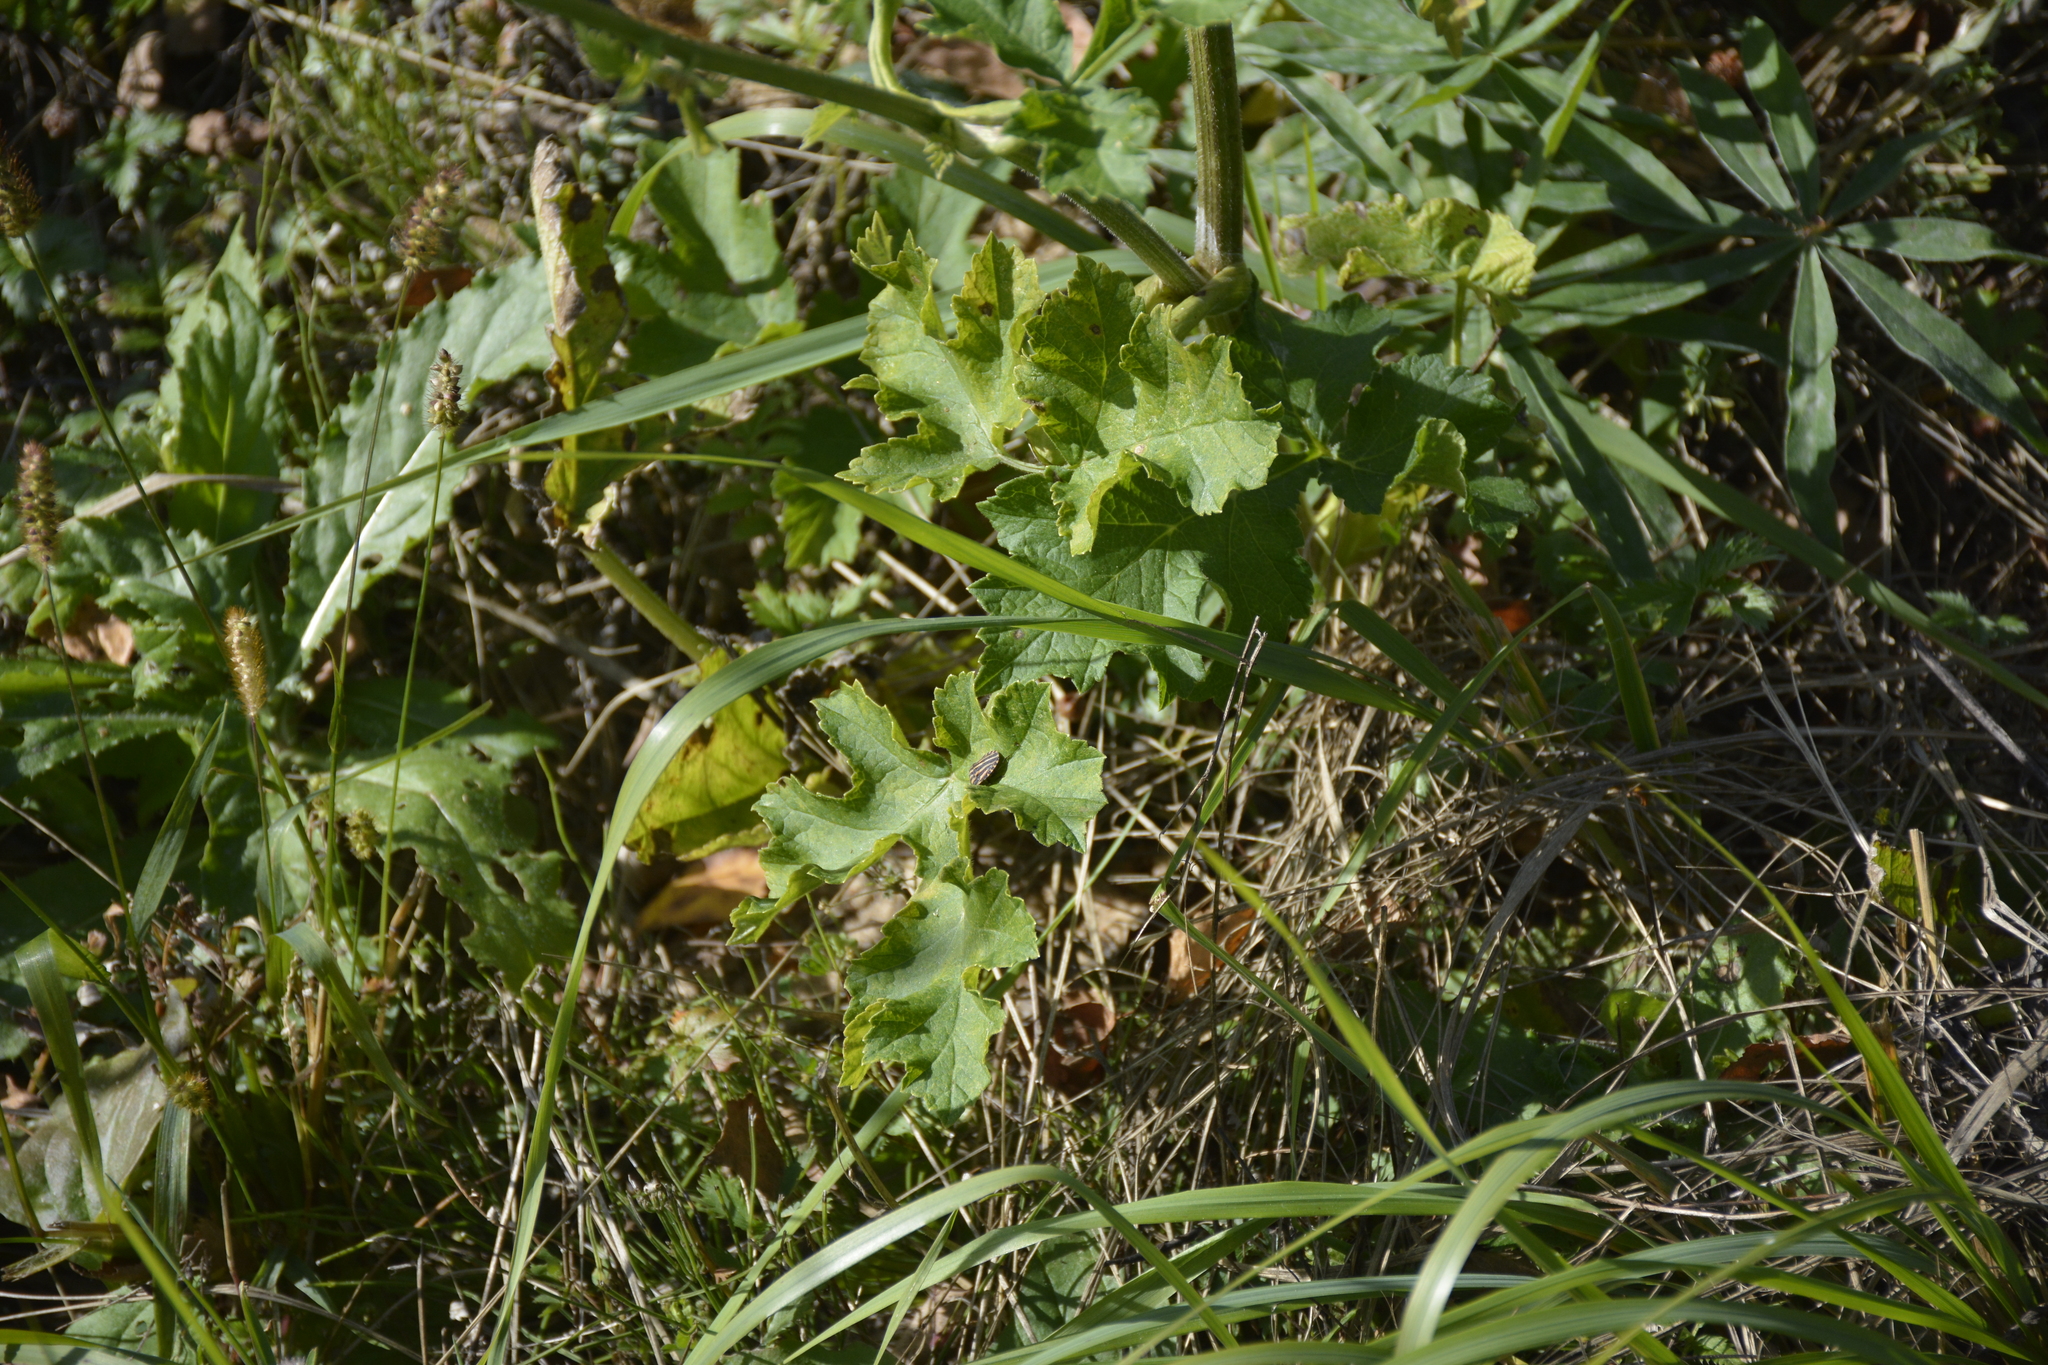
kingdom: Plantae
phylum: Tracheophyta
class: Magnoliopsida
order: Apiales
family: Apiaceae
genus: Heracleum
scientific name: Heracleum sphondylium
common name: Hogweed
